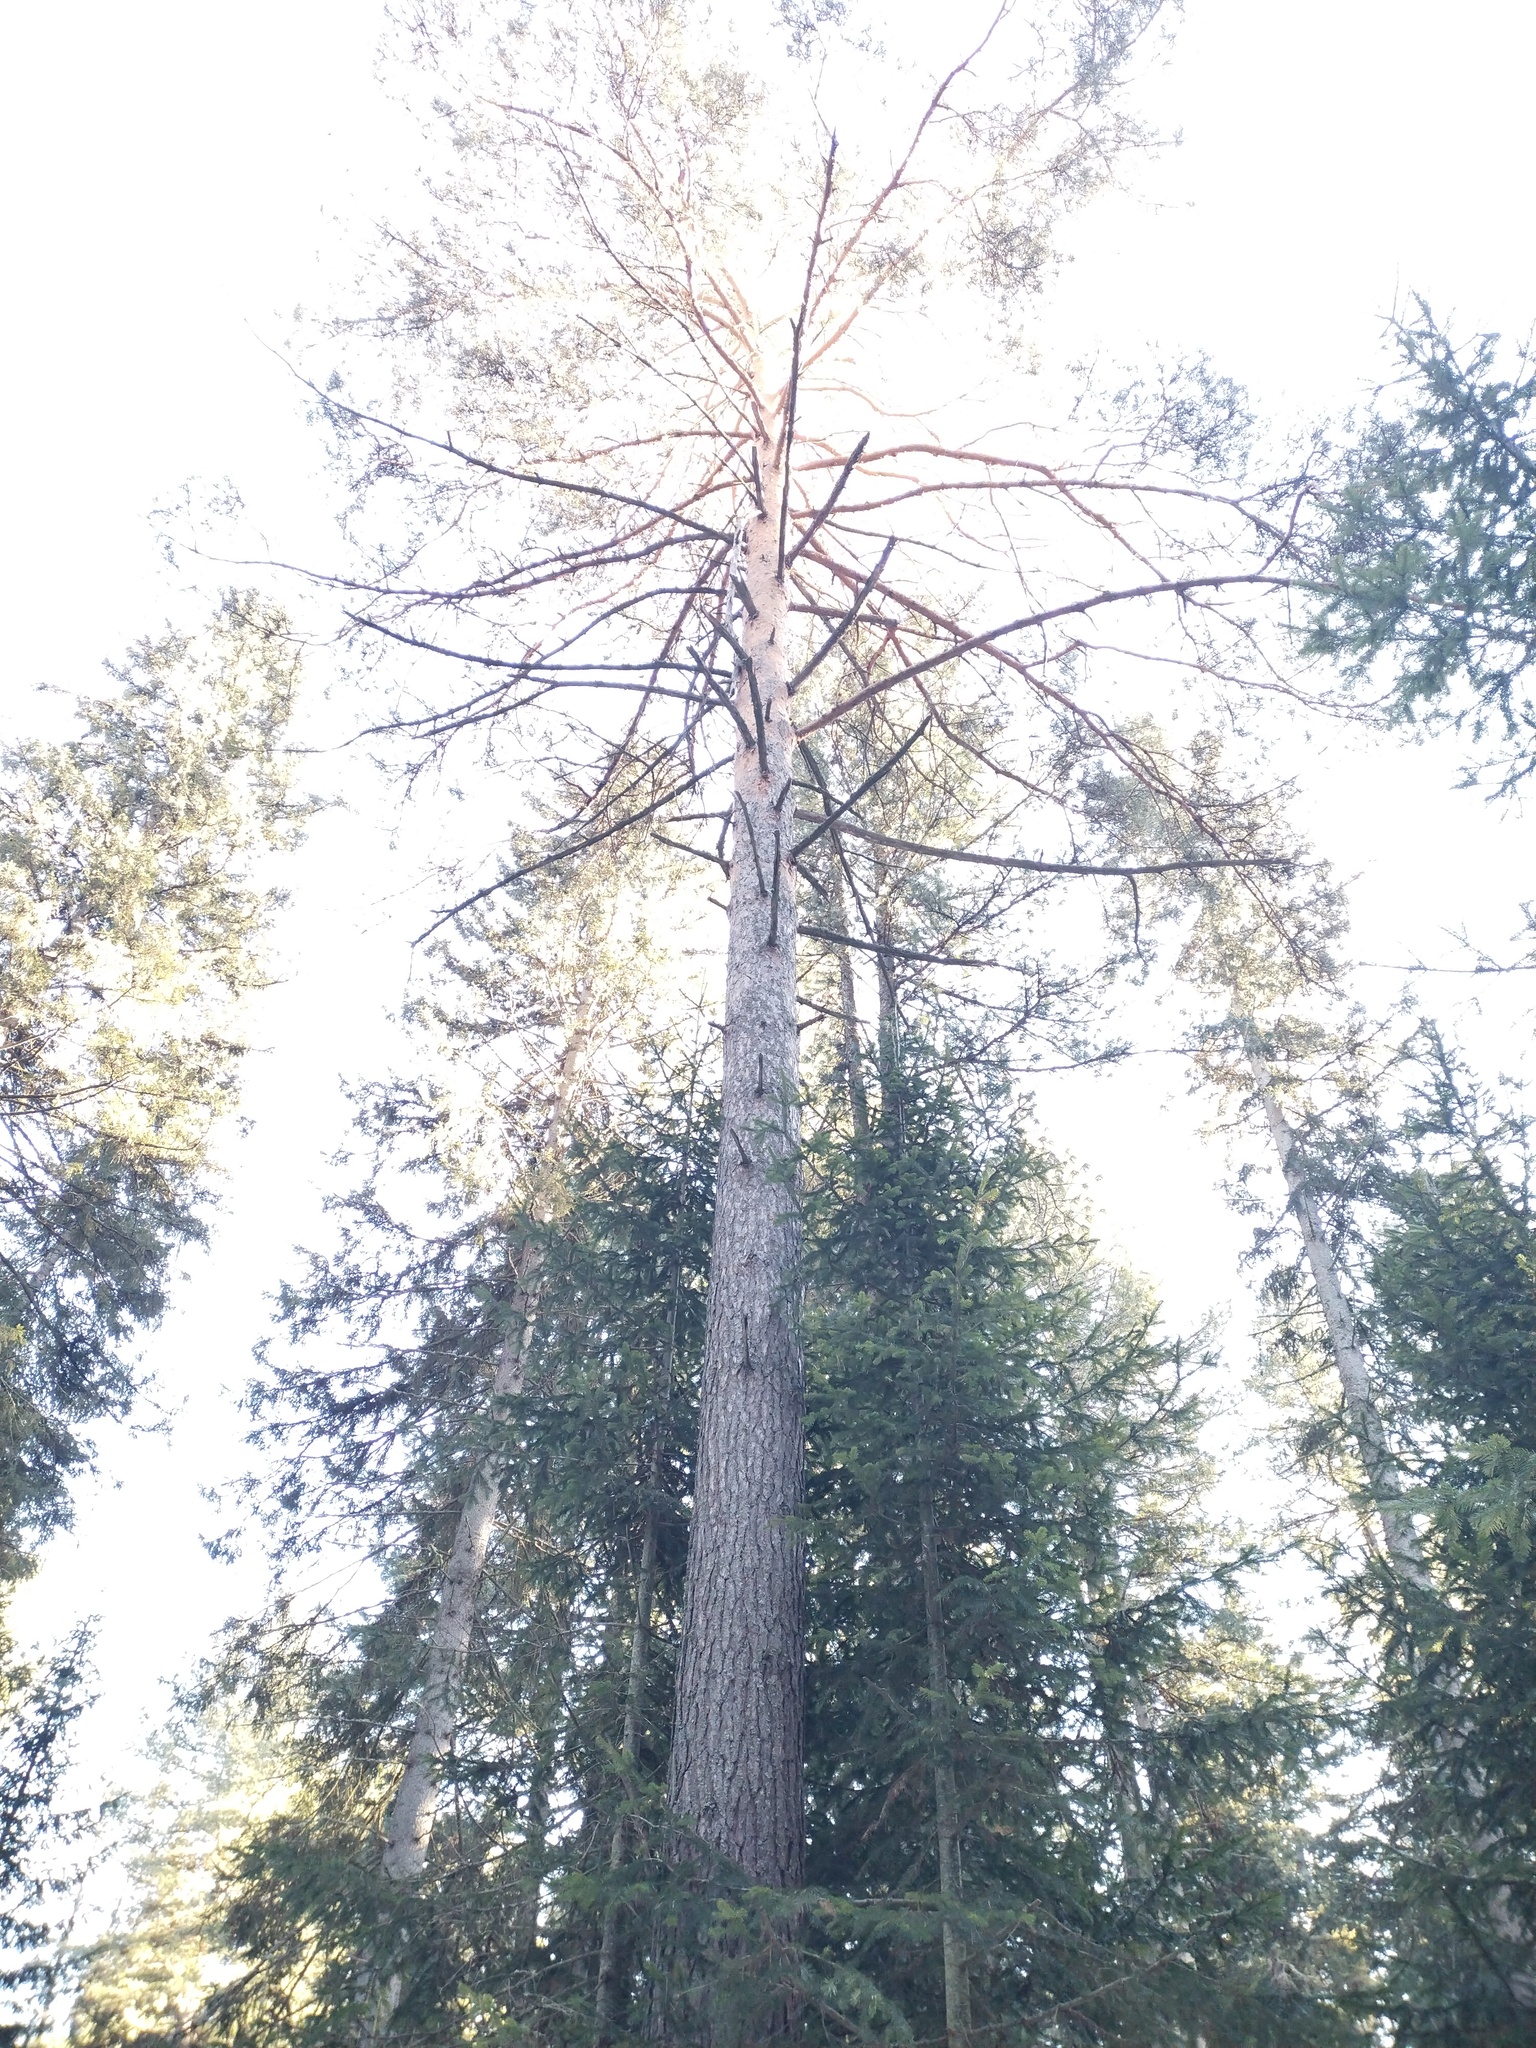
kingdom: Plantae
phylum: Tracheophyta
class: Pinopsida
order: Pinales
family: Pinaceae
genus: Pinus
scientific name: Pinus sylvestris
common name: Scots pine
